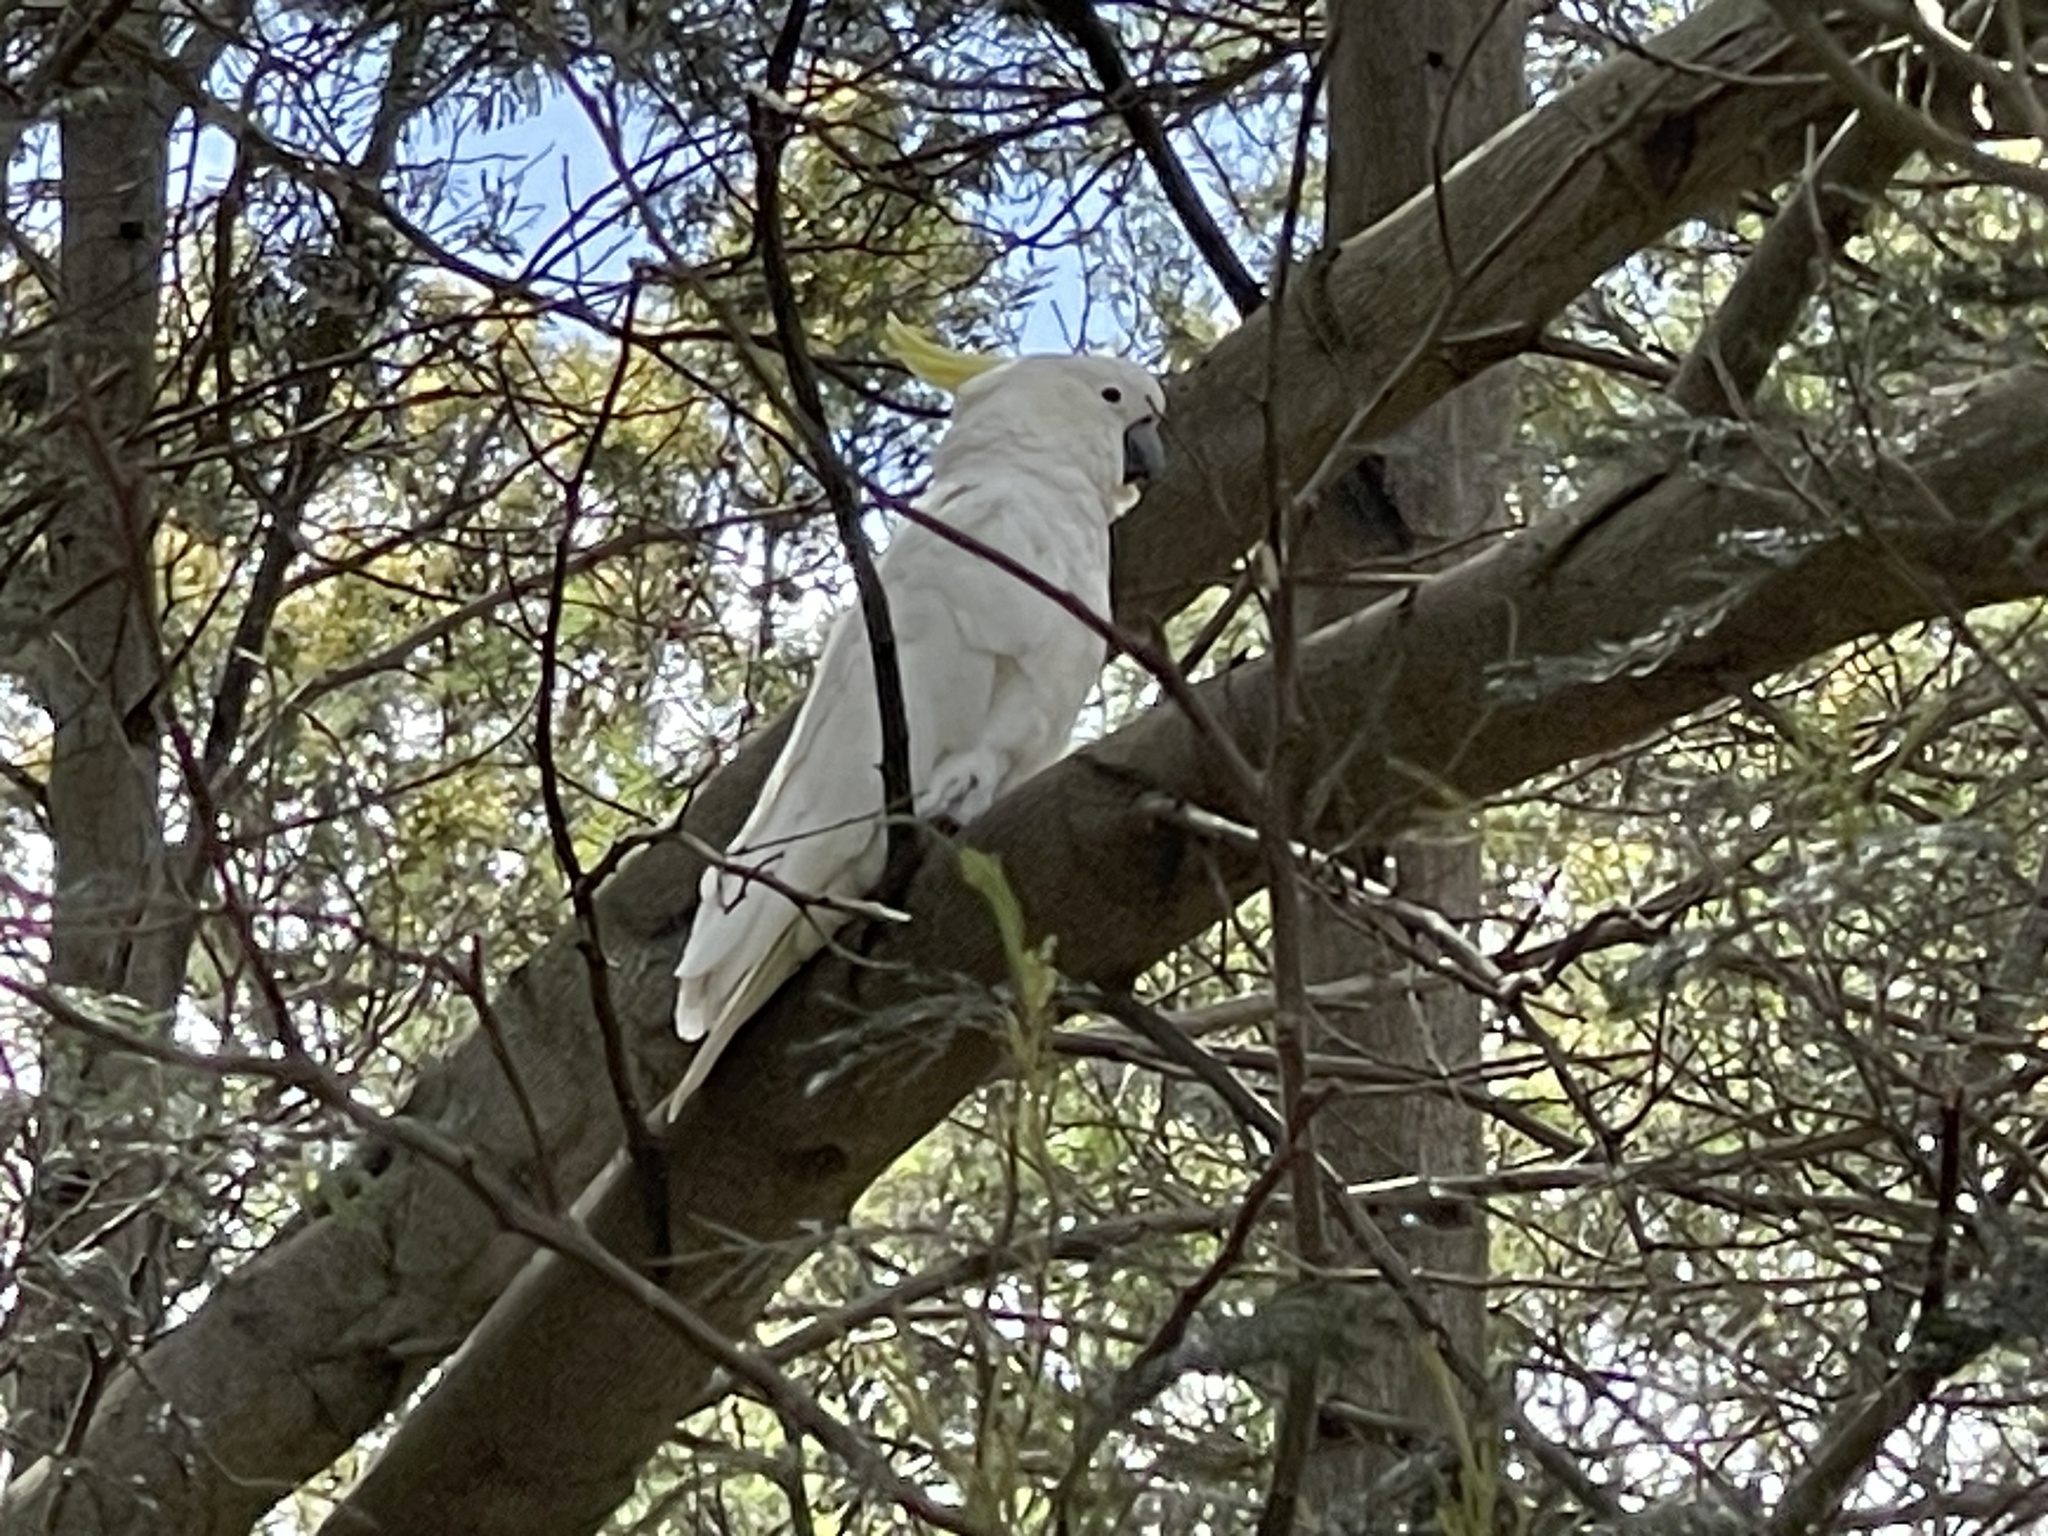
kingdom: Animalia
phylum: Chordata
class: Aves
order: Psittaciformes
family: Psittacidae
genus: Cacatua
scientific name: Cacatua galerita
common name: Sulphur-crested cockatoo
